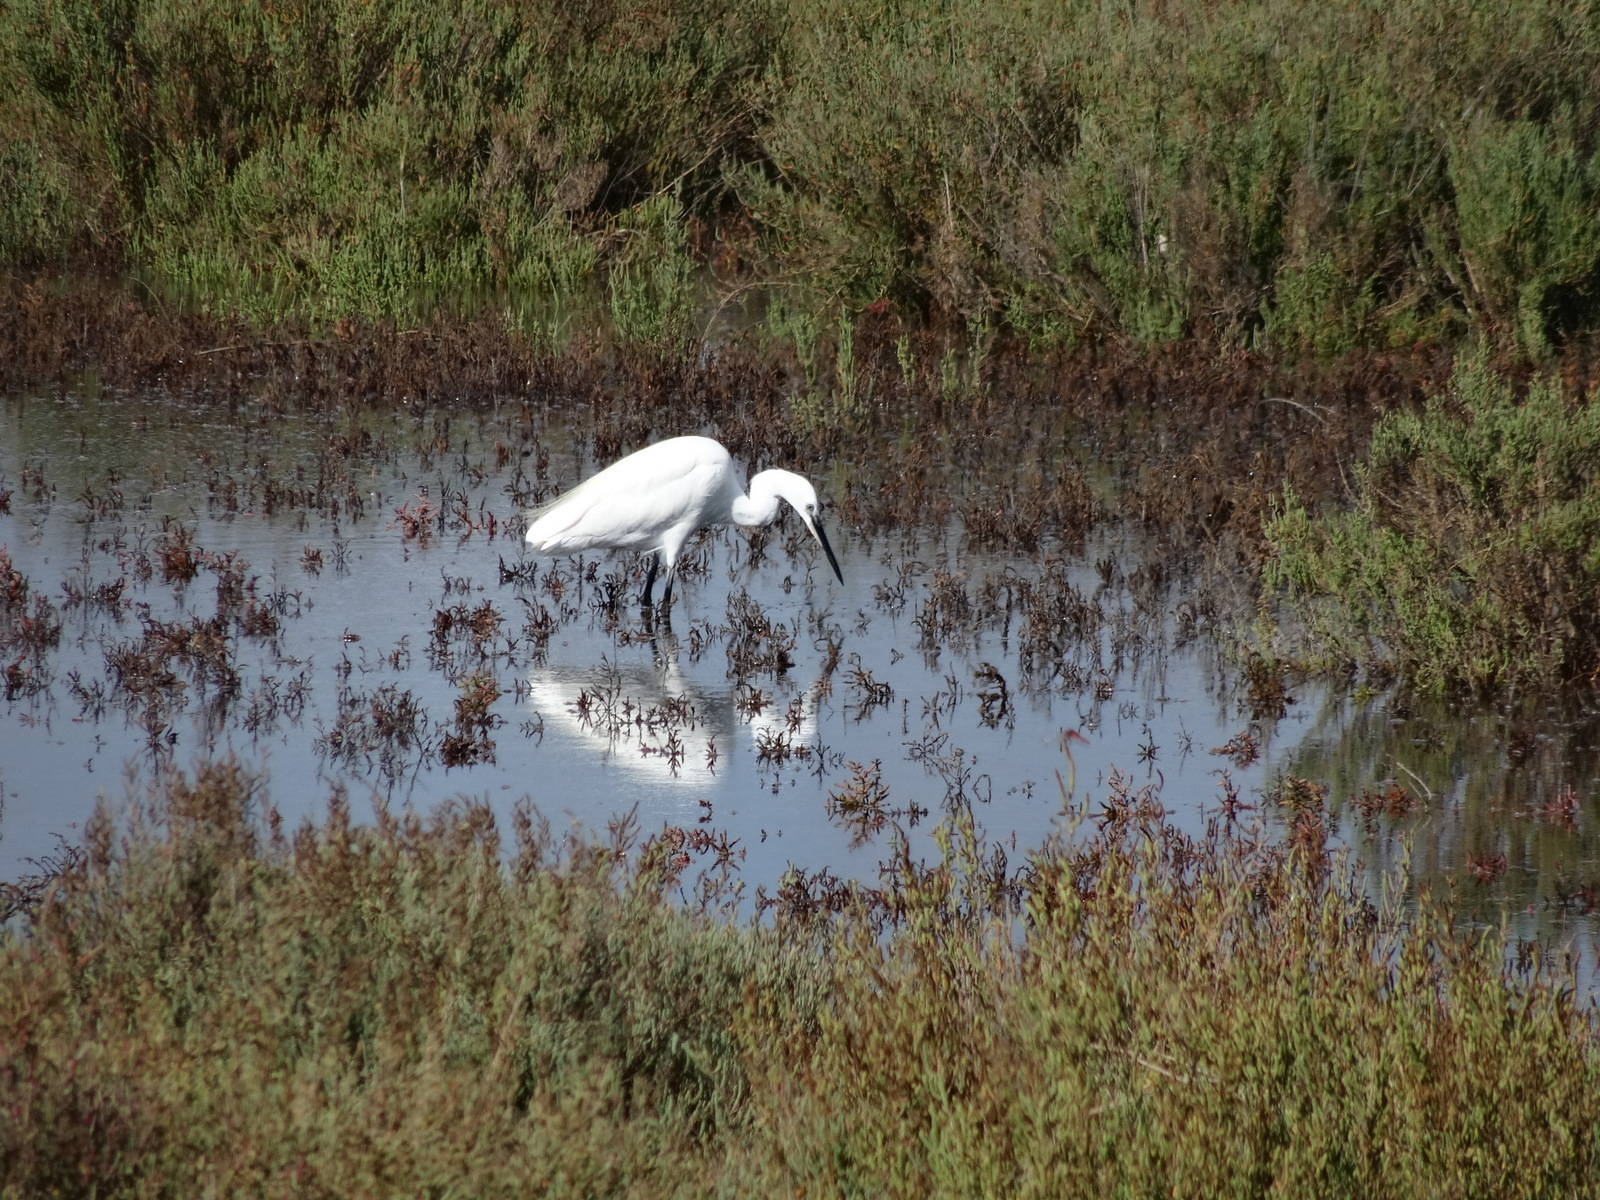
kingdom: Animalia
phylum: Chordata
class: Aves
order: Pelecaniformes
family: Ardeidae
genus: Egretta
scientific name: Egretta garzetta
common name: Little egret
